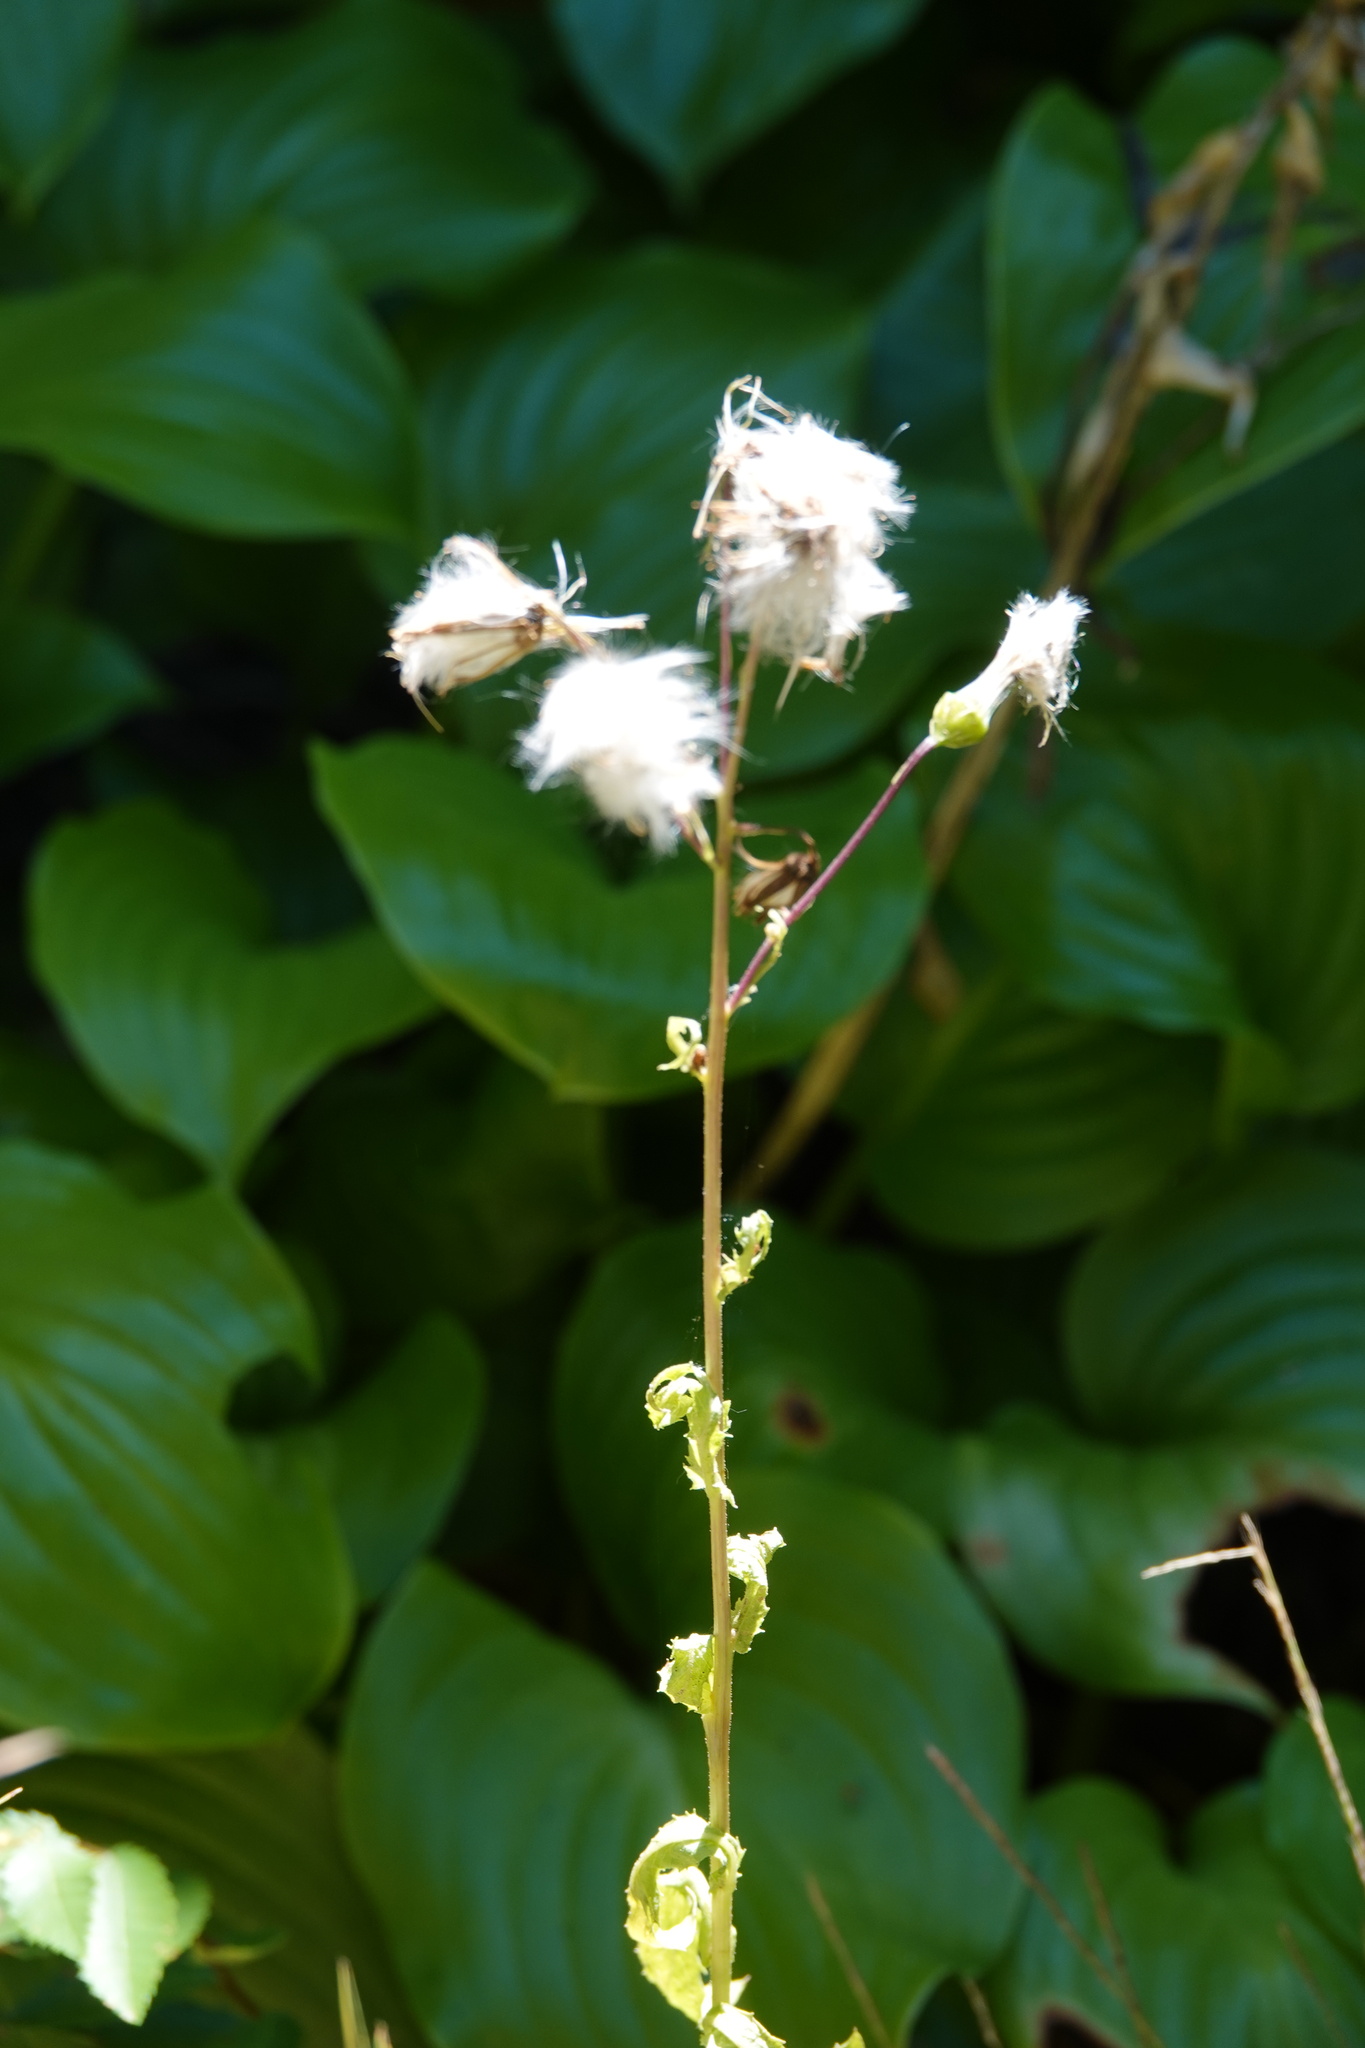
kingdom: Plantae
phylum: Tracheophyta
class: Magnoliopsida
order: Asterales
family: Asteraceae
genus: Erechtites
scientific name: Erechtites hieraciifolius
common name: American burnweed
